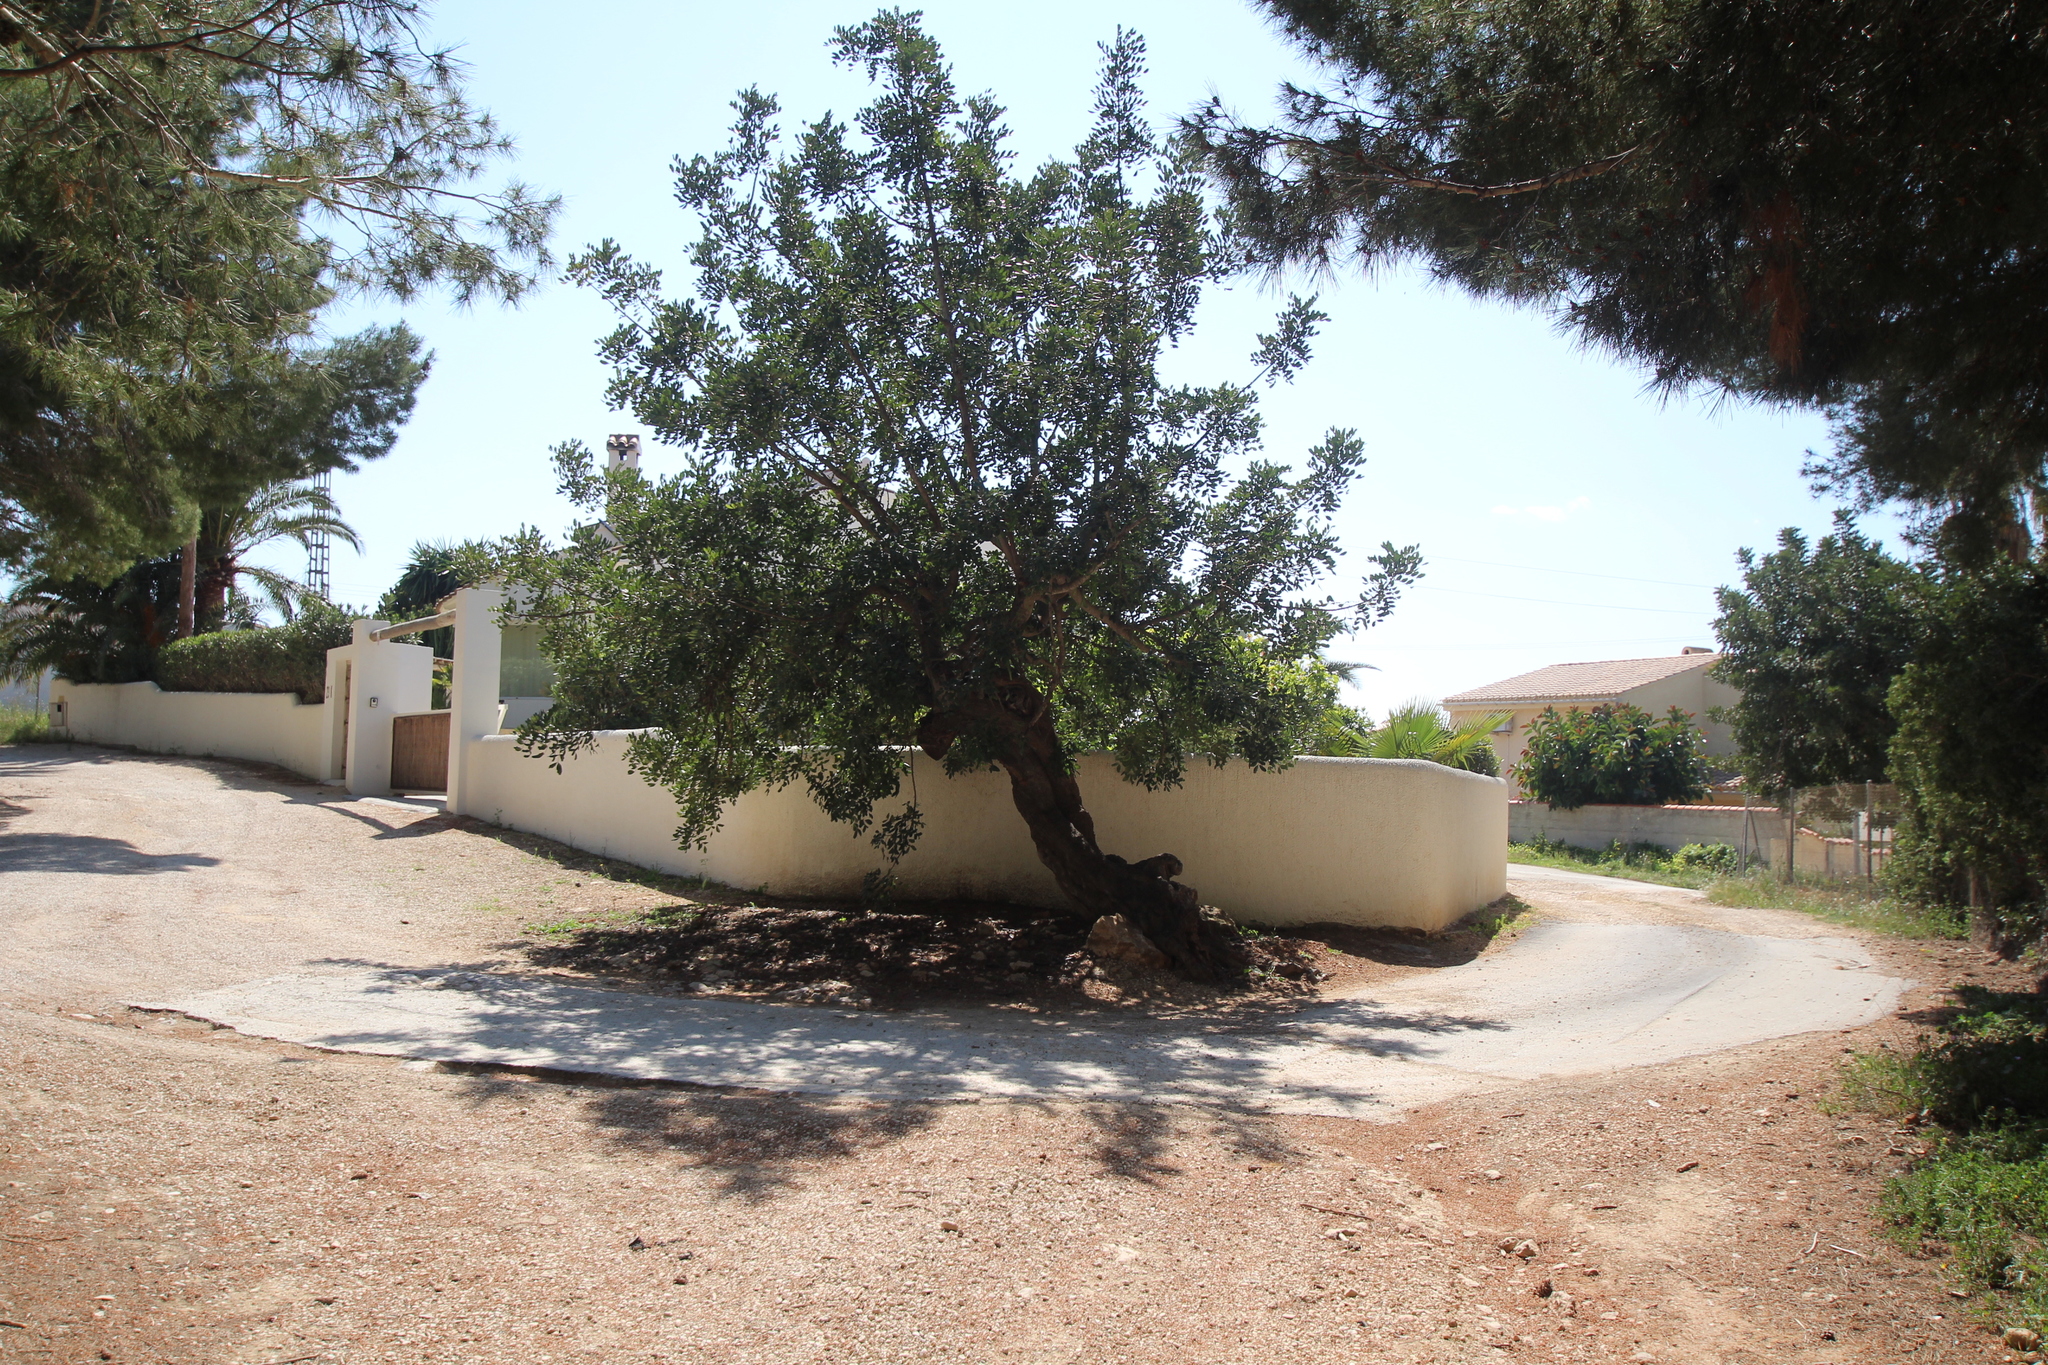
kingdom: Plantae
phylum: Tracheophyta
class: Magnoliopsida
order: Fabales
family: Fabaceae
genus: Ceratonia
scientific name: Ceratonia siliqua
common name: Carob
